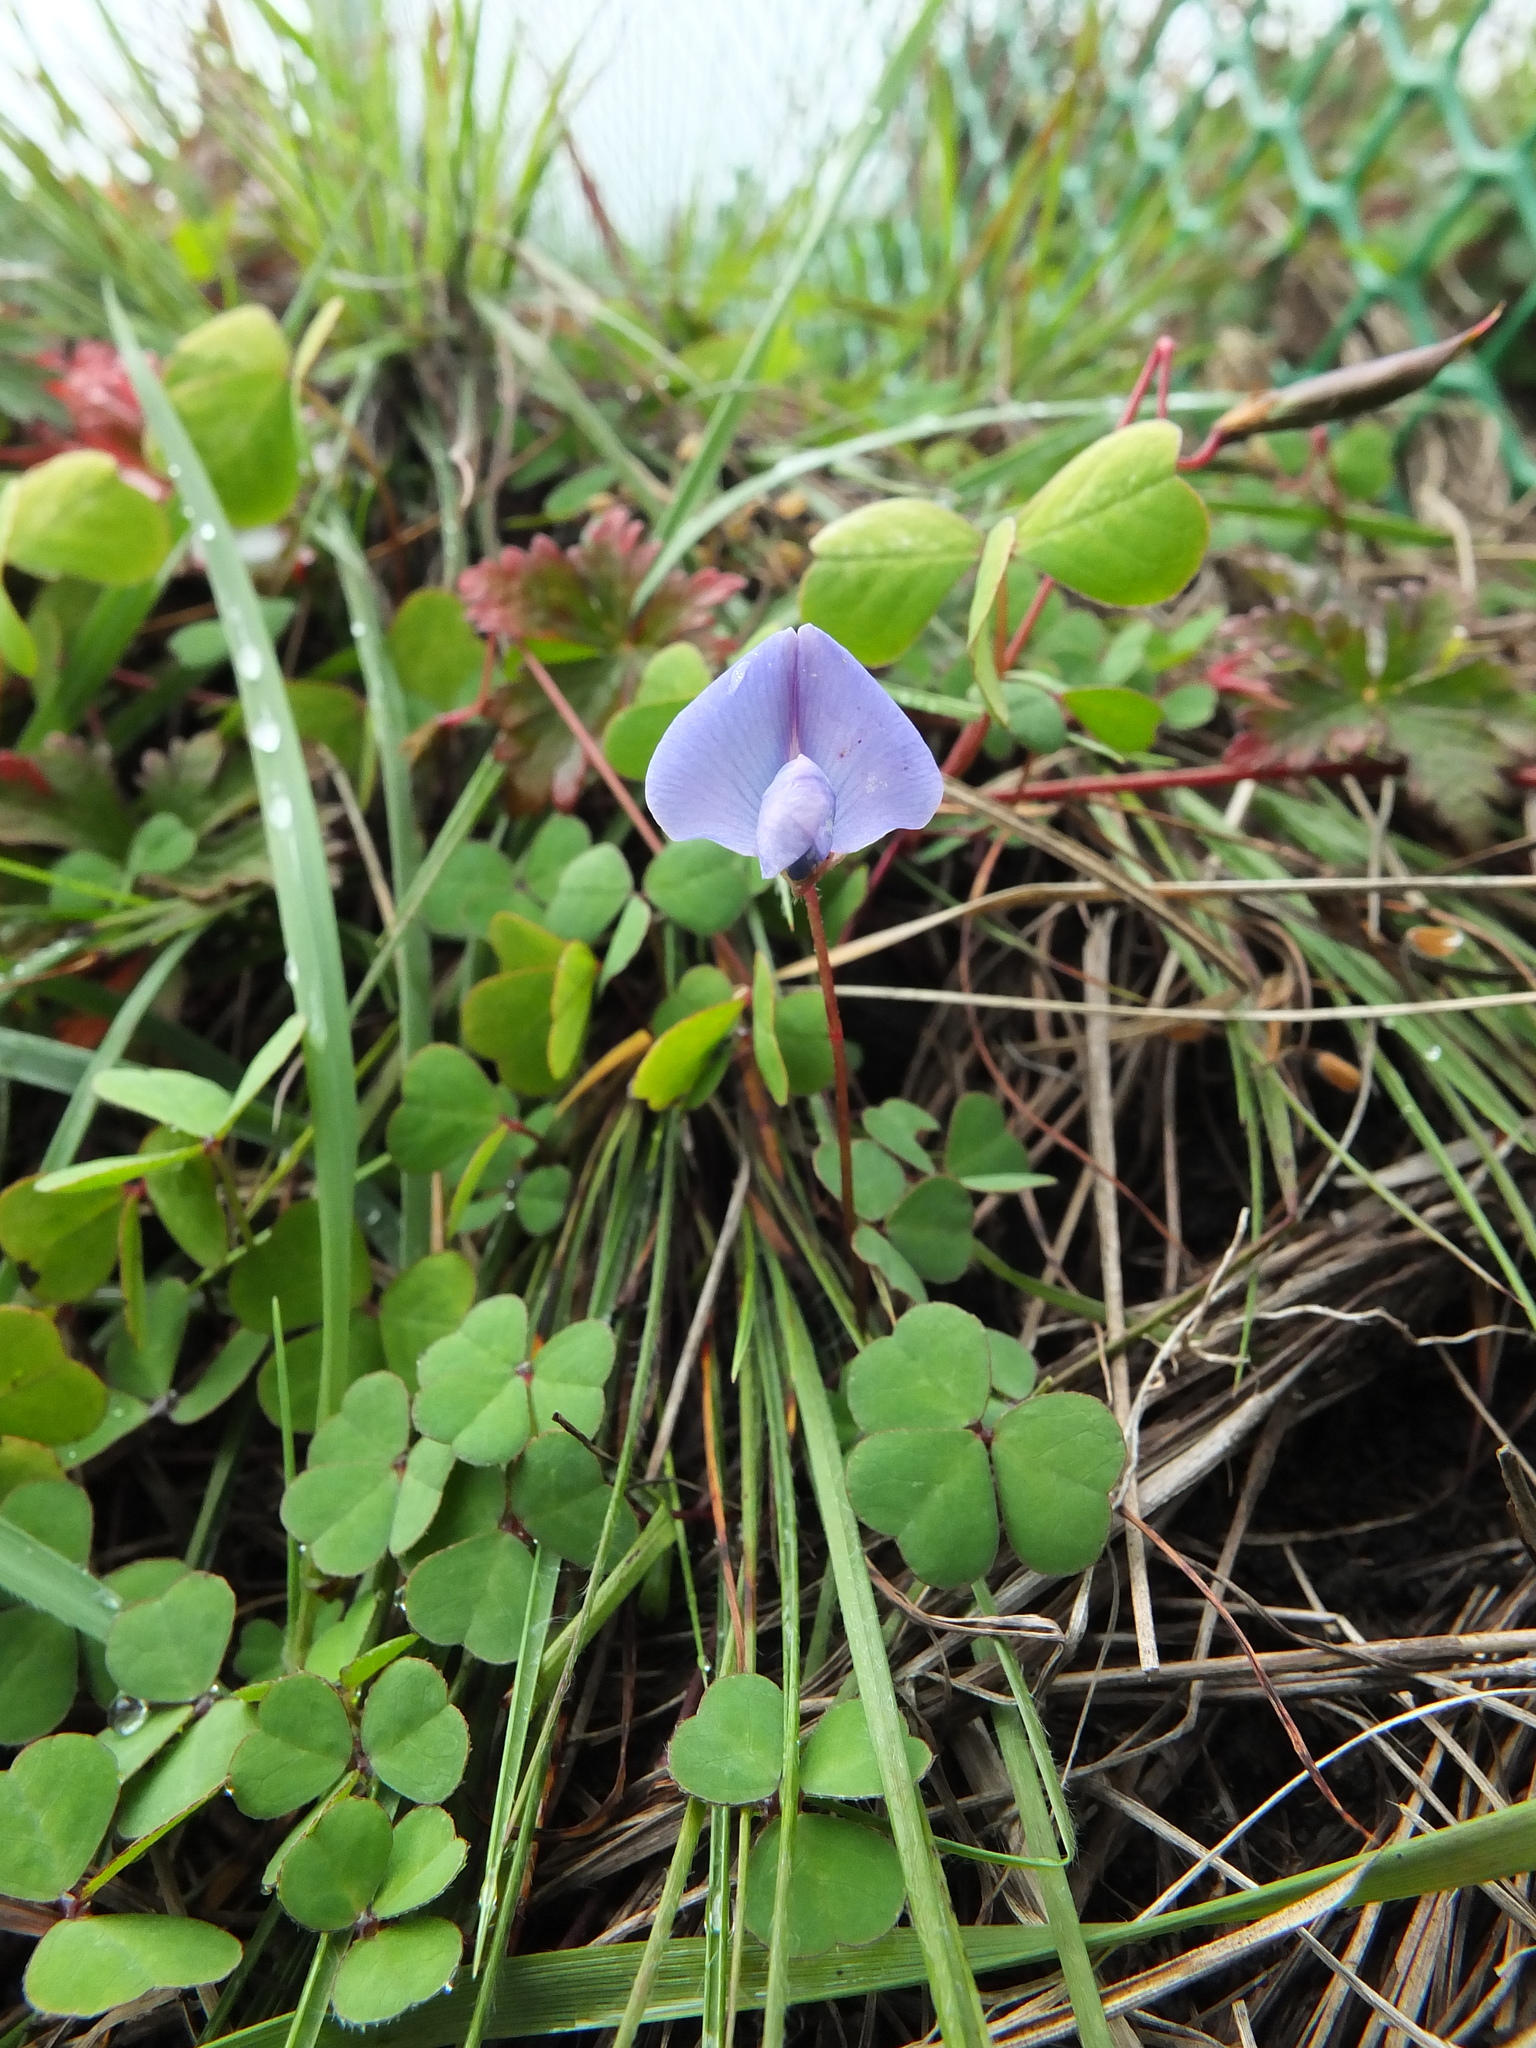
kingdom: Plantae
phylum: Tracheophyta
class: Magnoliopsida
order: Fabales
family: Fabaceae
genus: Parochetus
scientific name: Parochetus communis
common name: Blue oxalis
